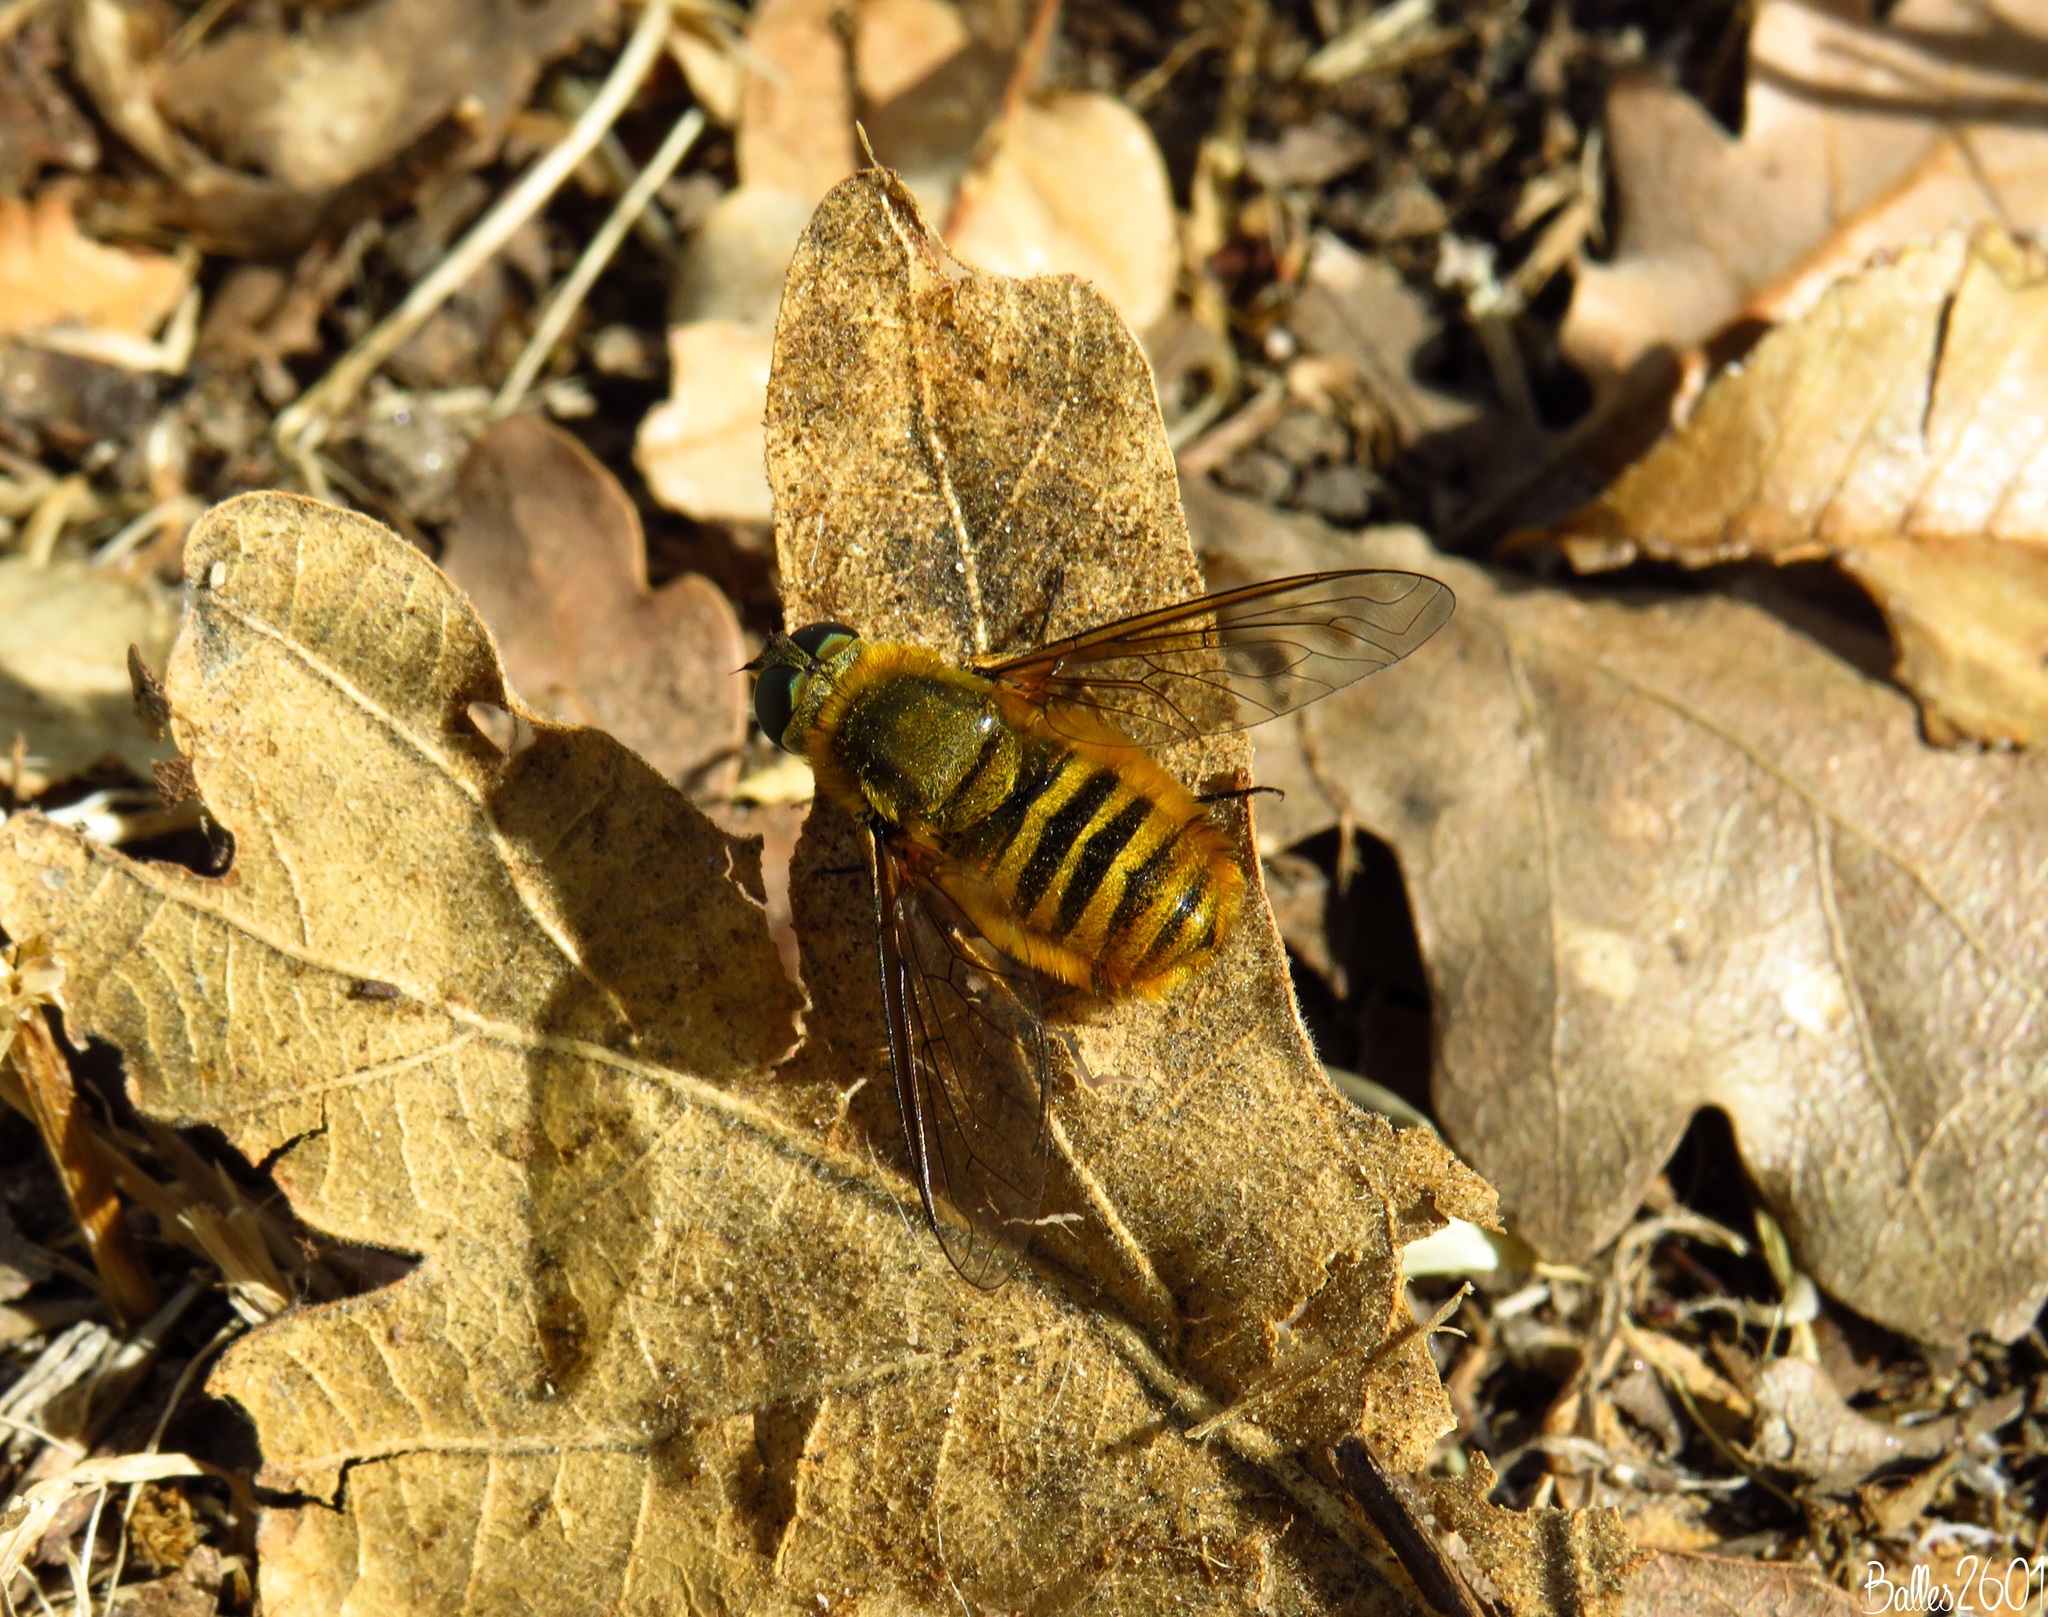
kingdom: Animalia
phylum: Arthropoda
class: Insecta
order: Diptera
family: Bombyliidae
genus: Villa
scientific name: Villa hottentotta
